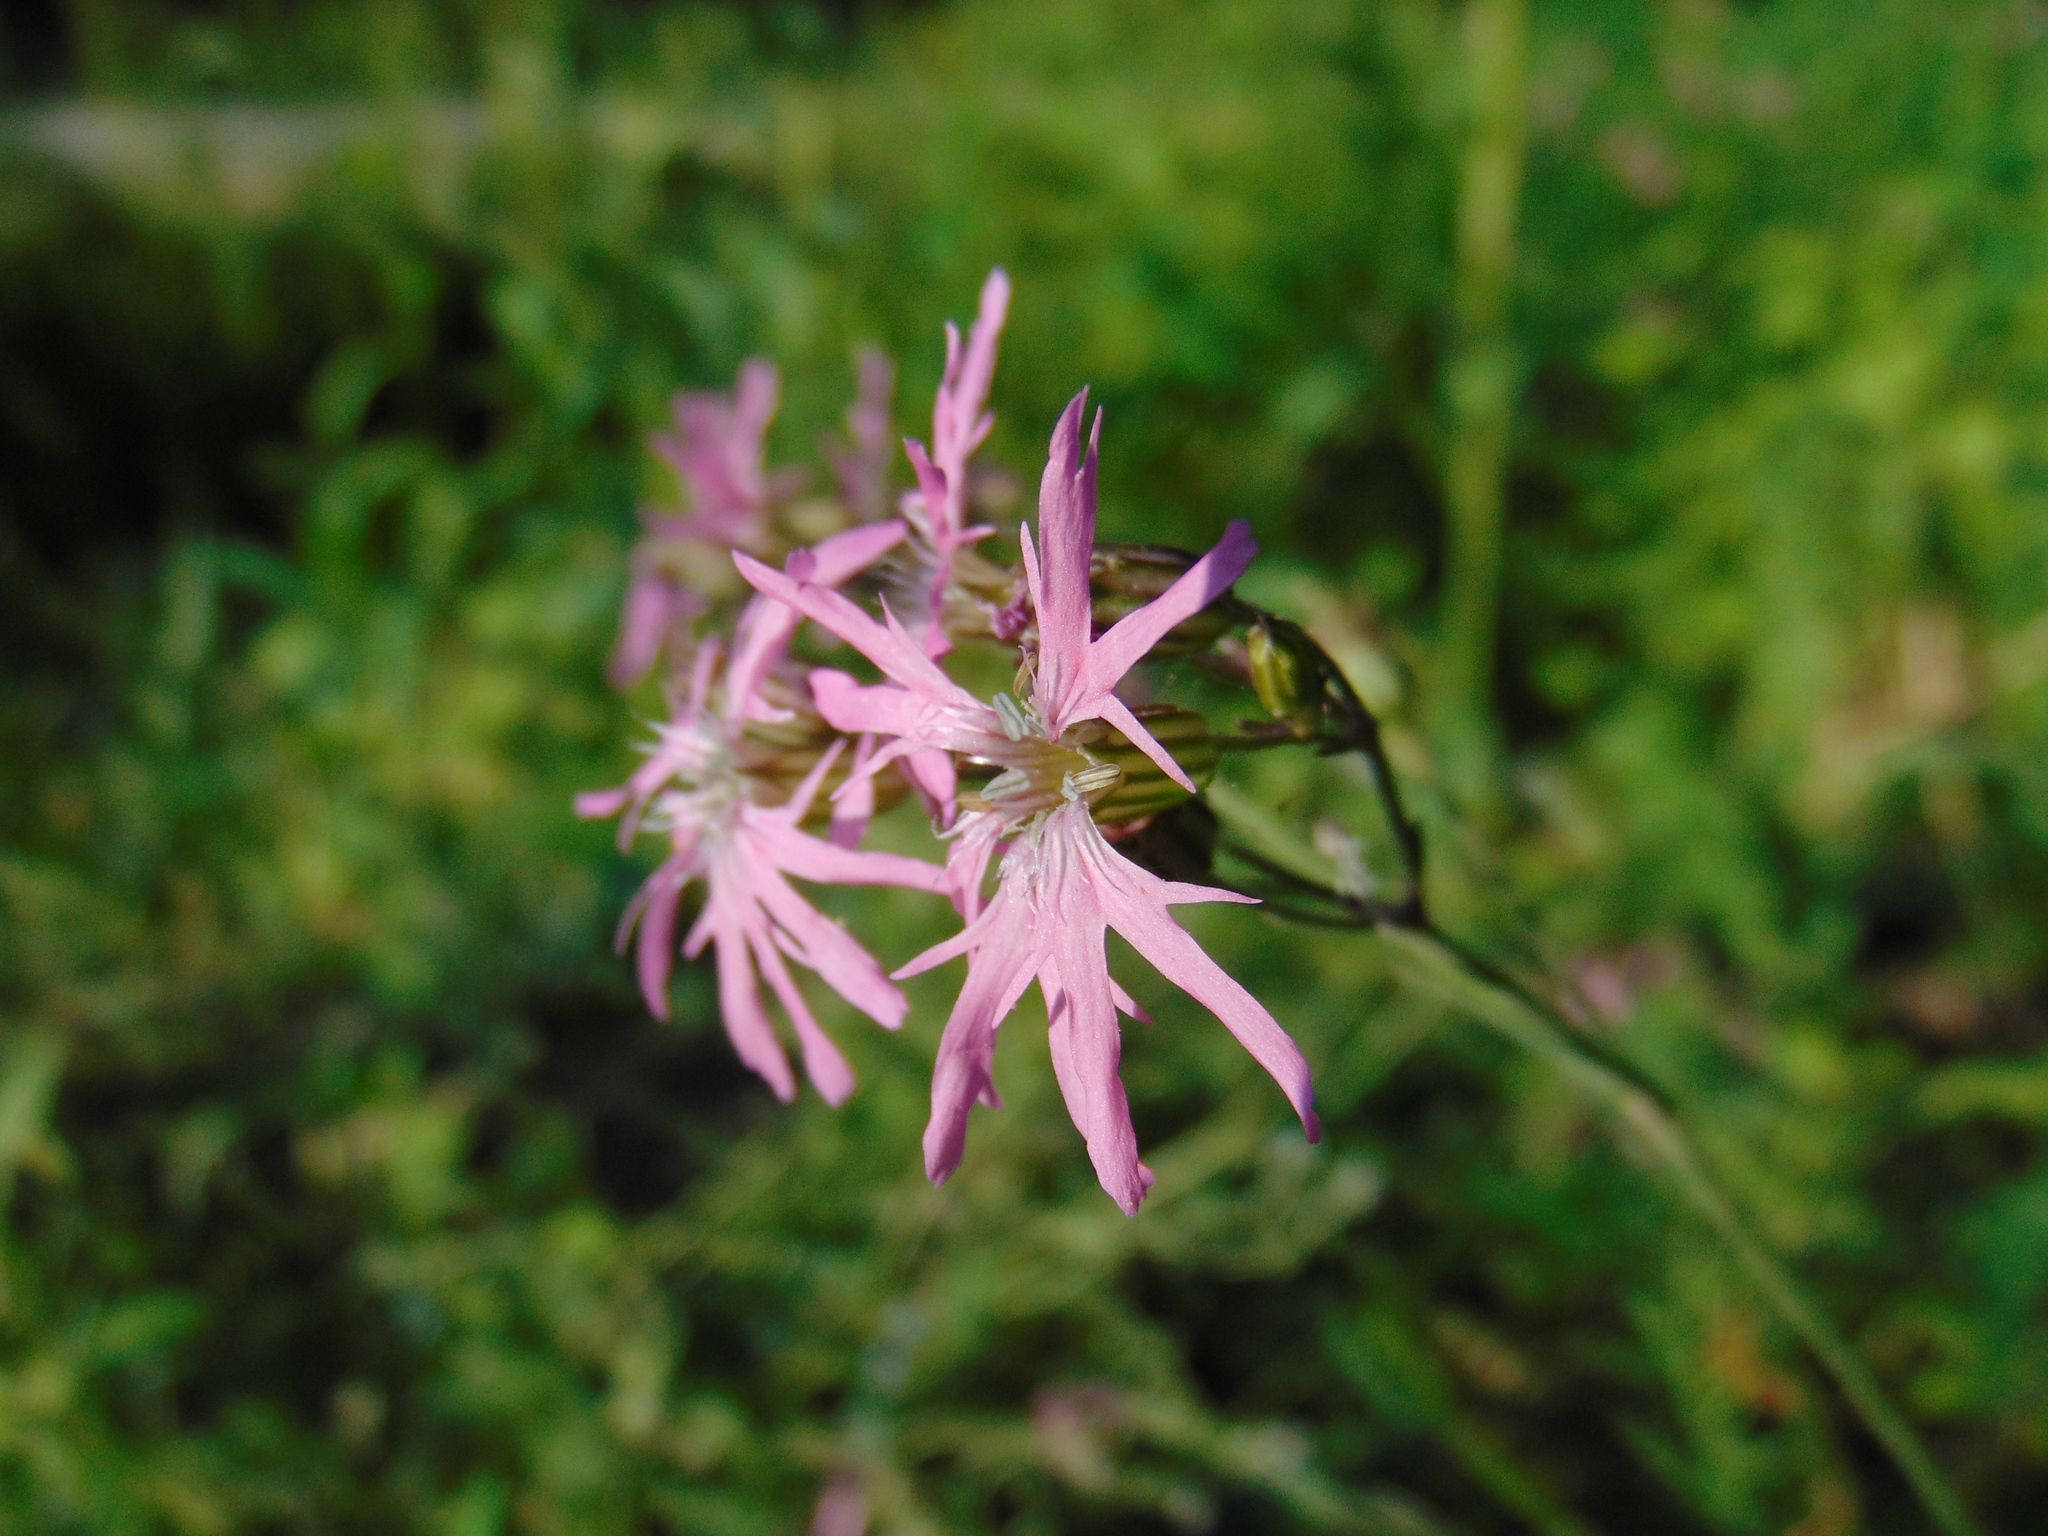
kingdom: Plantae
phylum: Tracheophyta
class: Magnoliopsida
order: Caryophyllales
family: Caryophyllaceae
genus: Silene
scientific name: Silene flos-cuculi
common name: Ragged-robin
